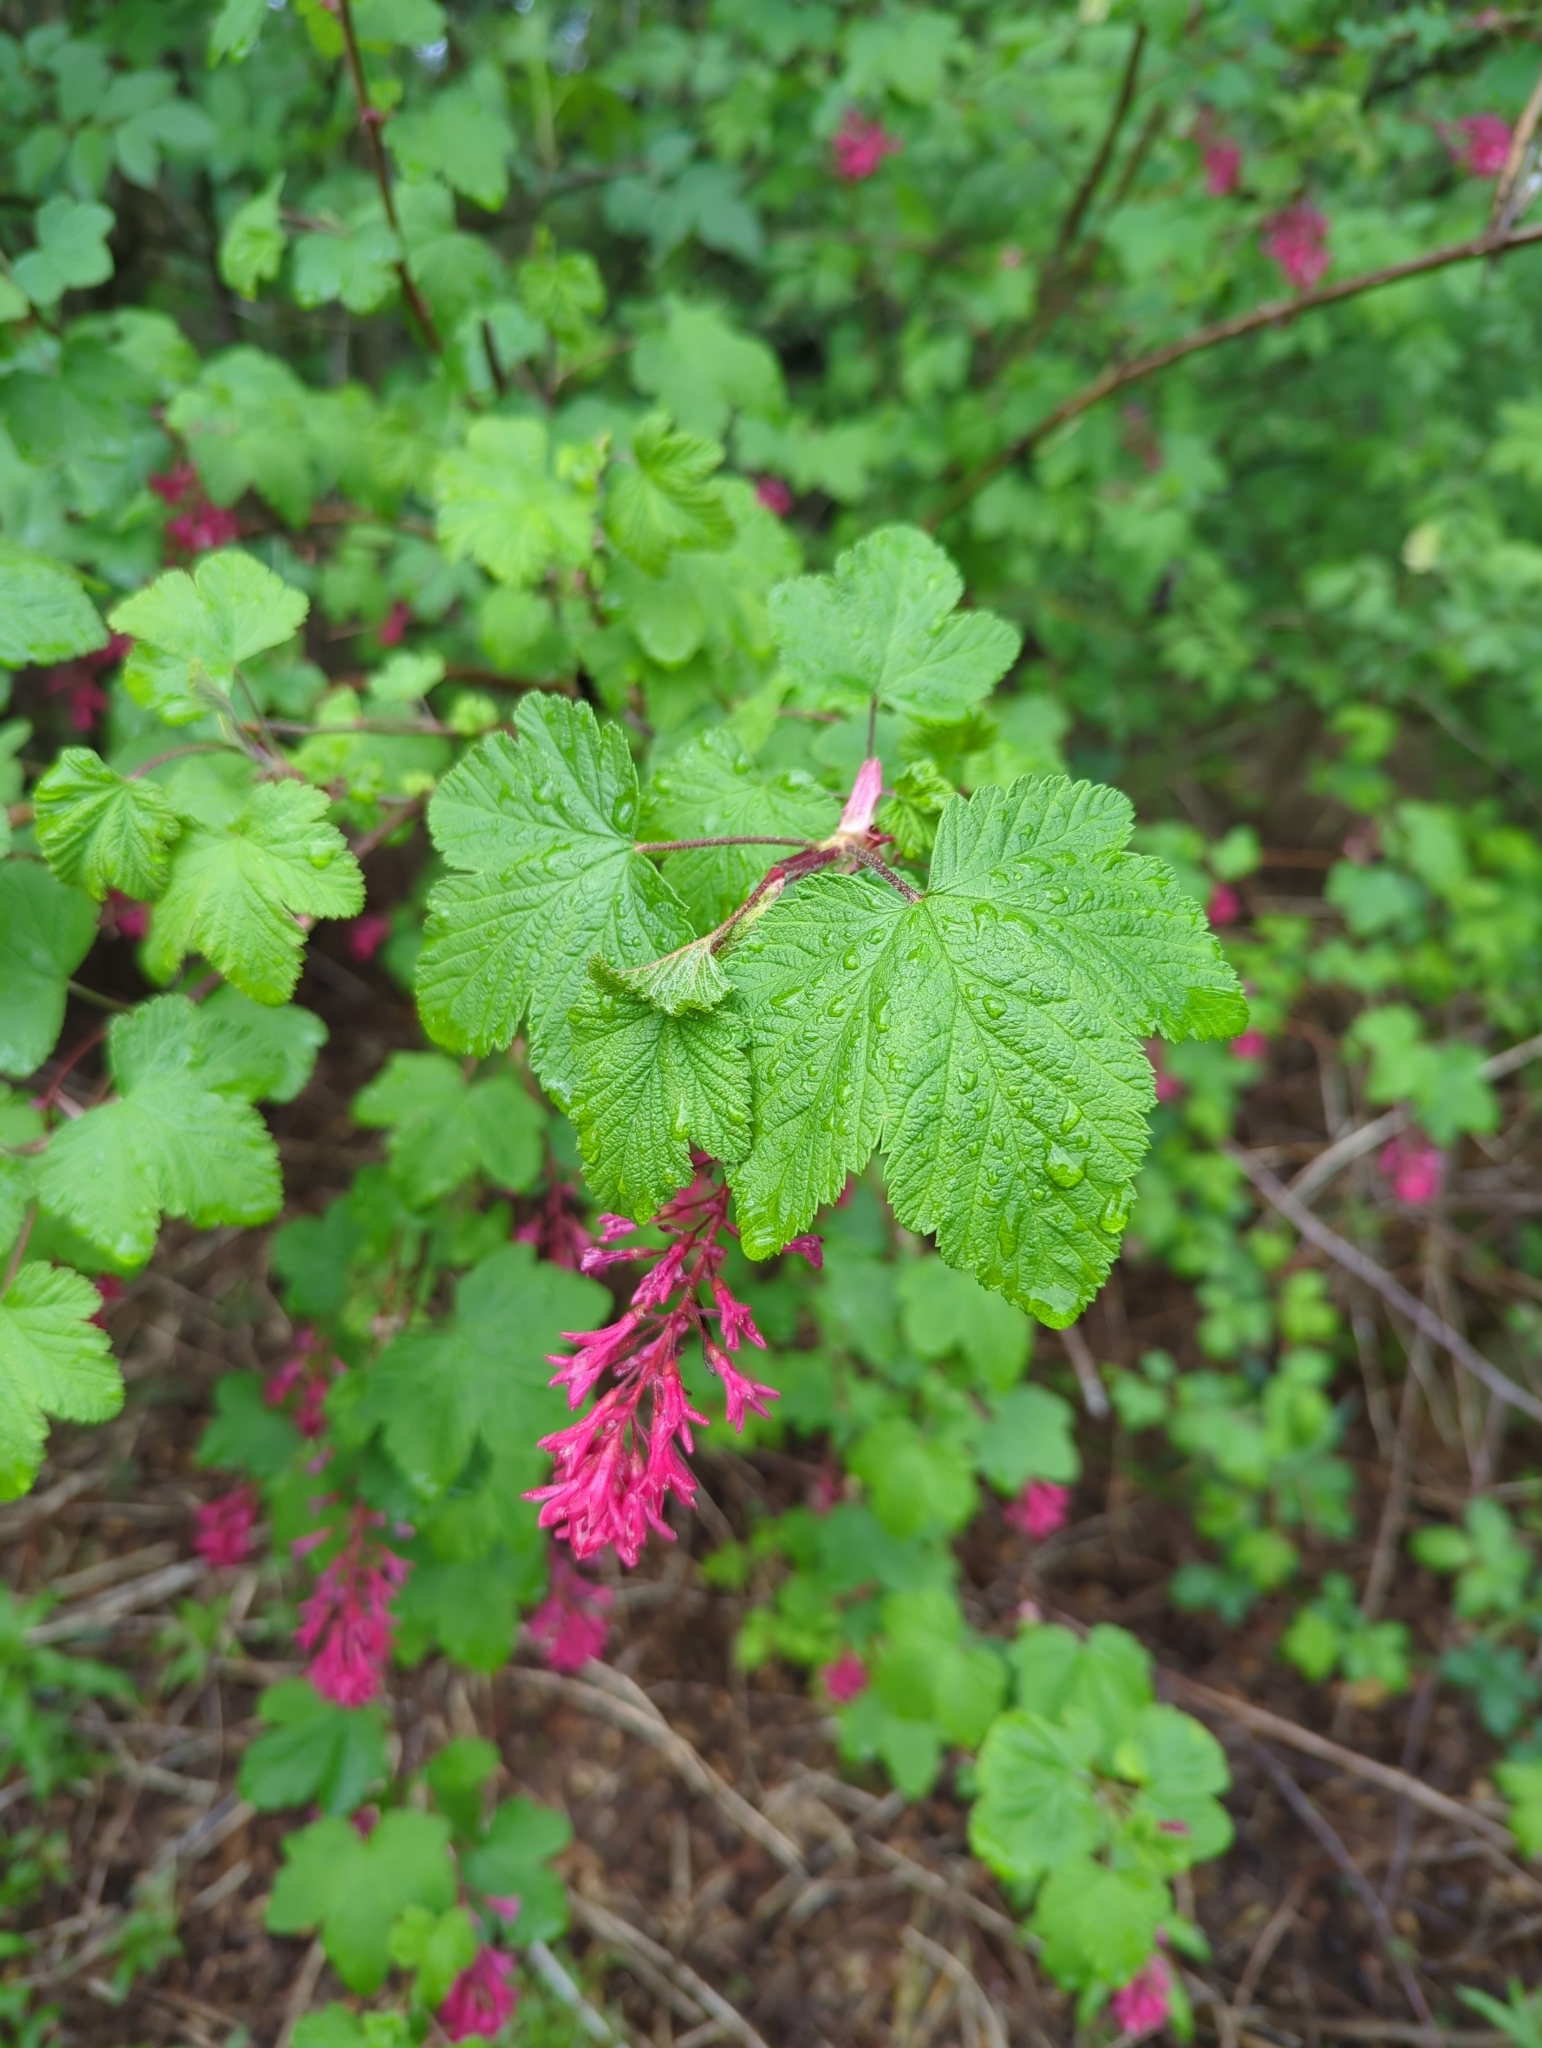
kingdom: Plantae
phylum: Tracheophyta
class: Magnoliopsida
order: Saxifragales
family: Grossulariaceae
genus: Ribes
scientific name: Ribes sanguineum
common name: Flowering currant
